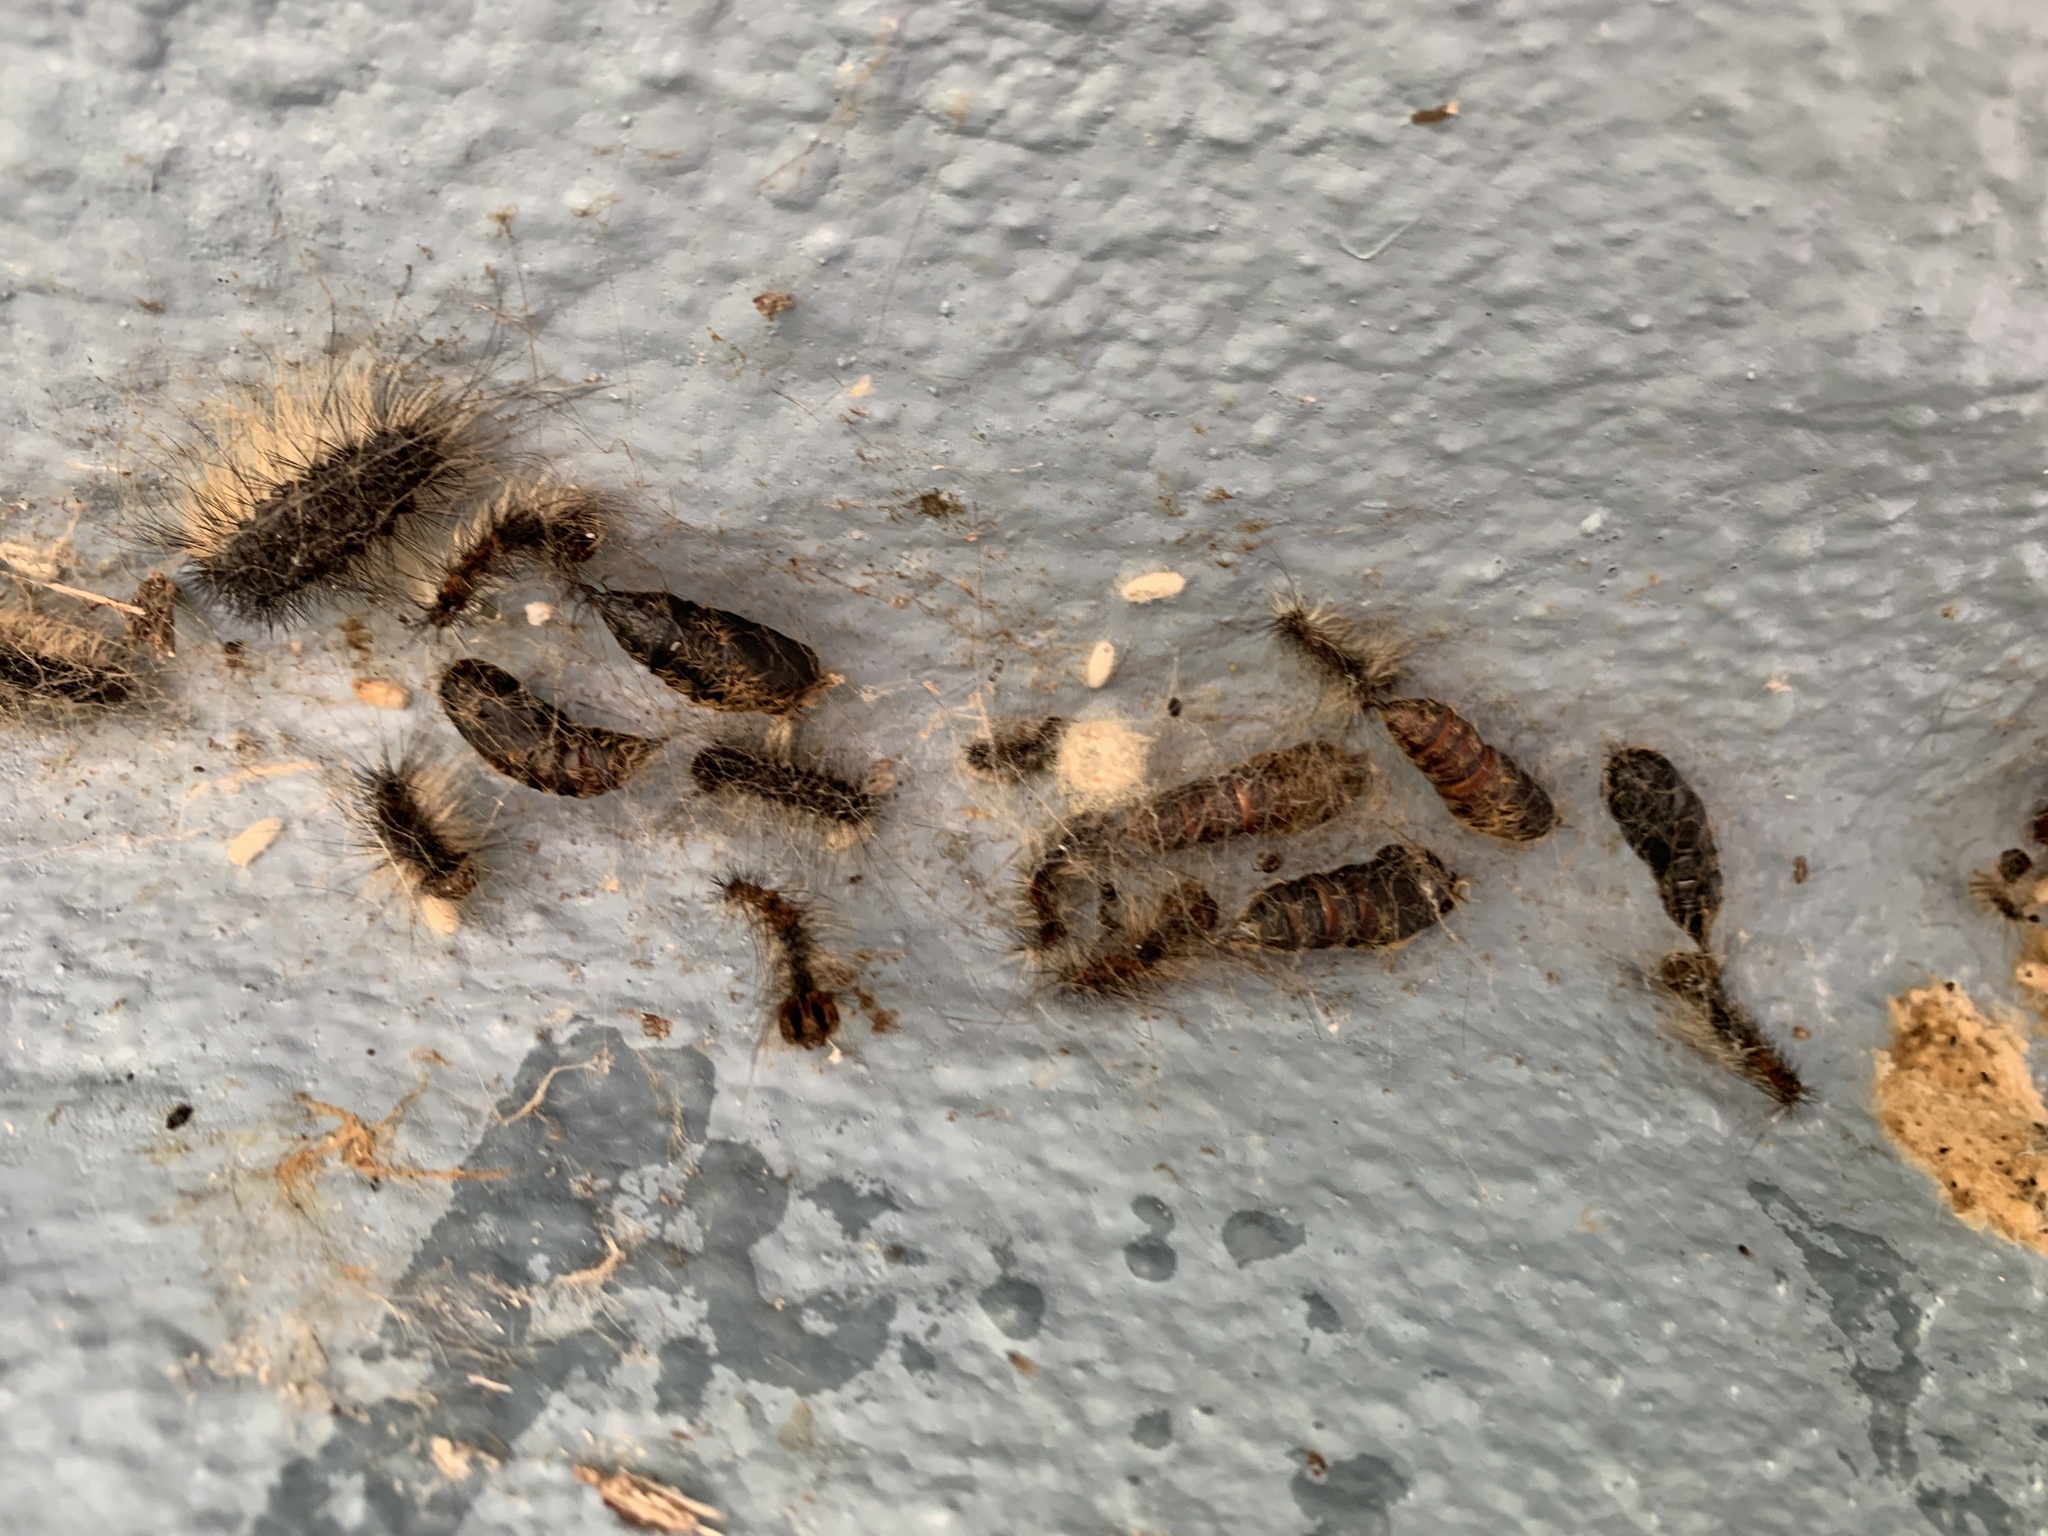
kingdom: Animalia
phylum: Arthropoda
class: Insecta
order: Lepidoptera
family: Erebidae
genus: Lymantria
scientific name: Lymantria dispar
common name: Gypsy moth
